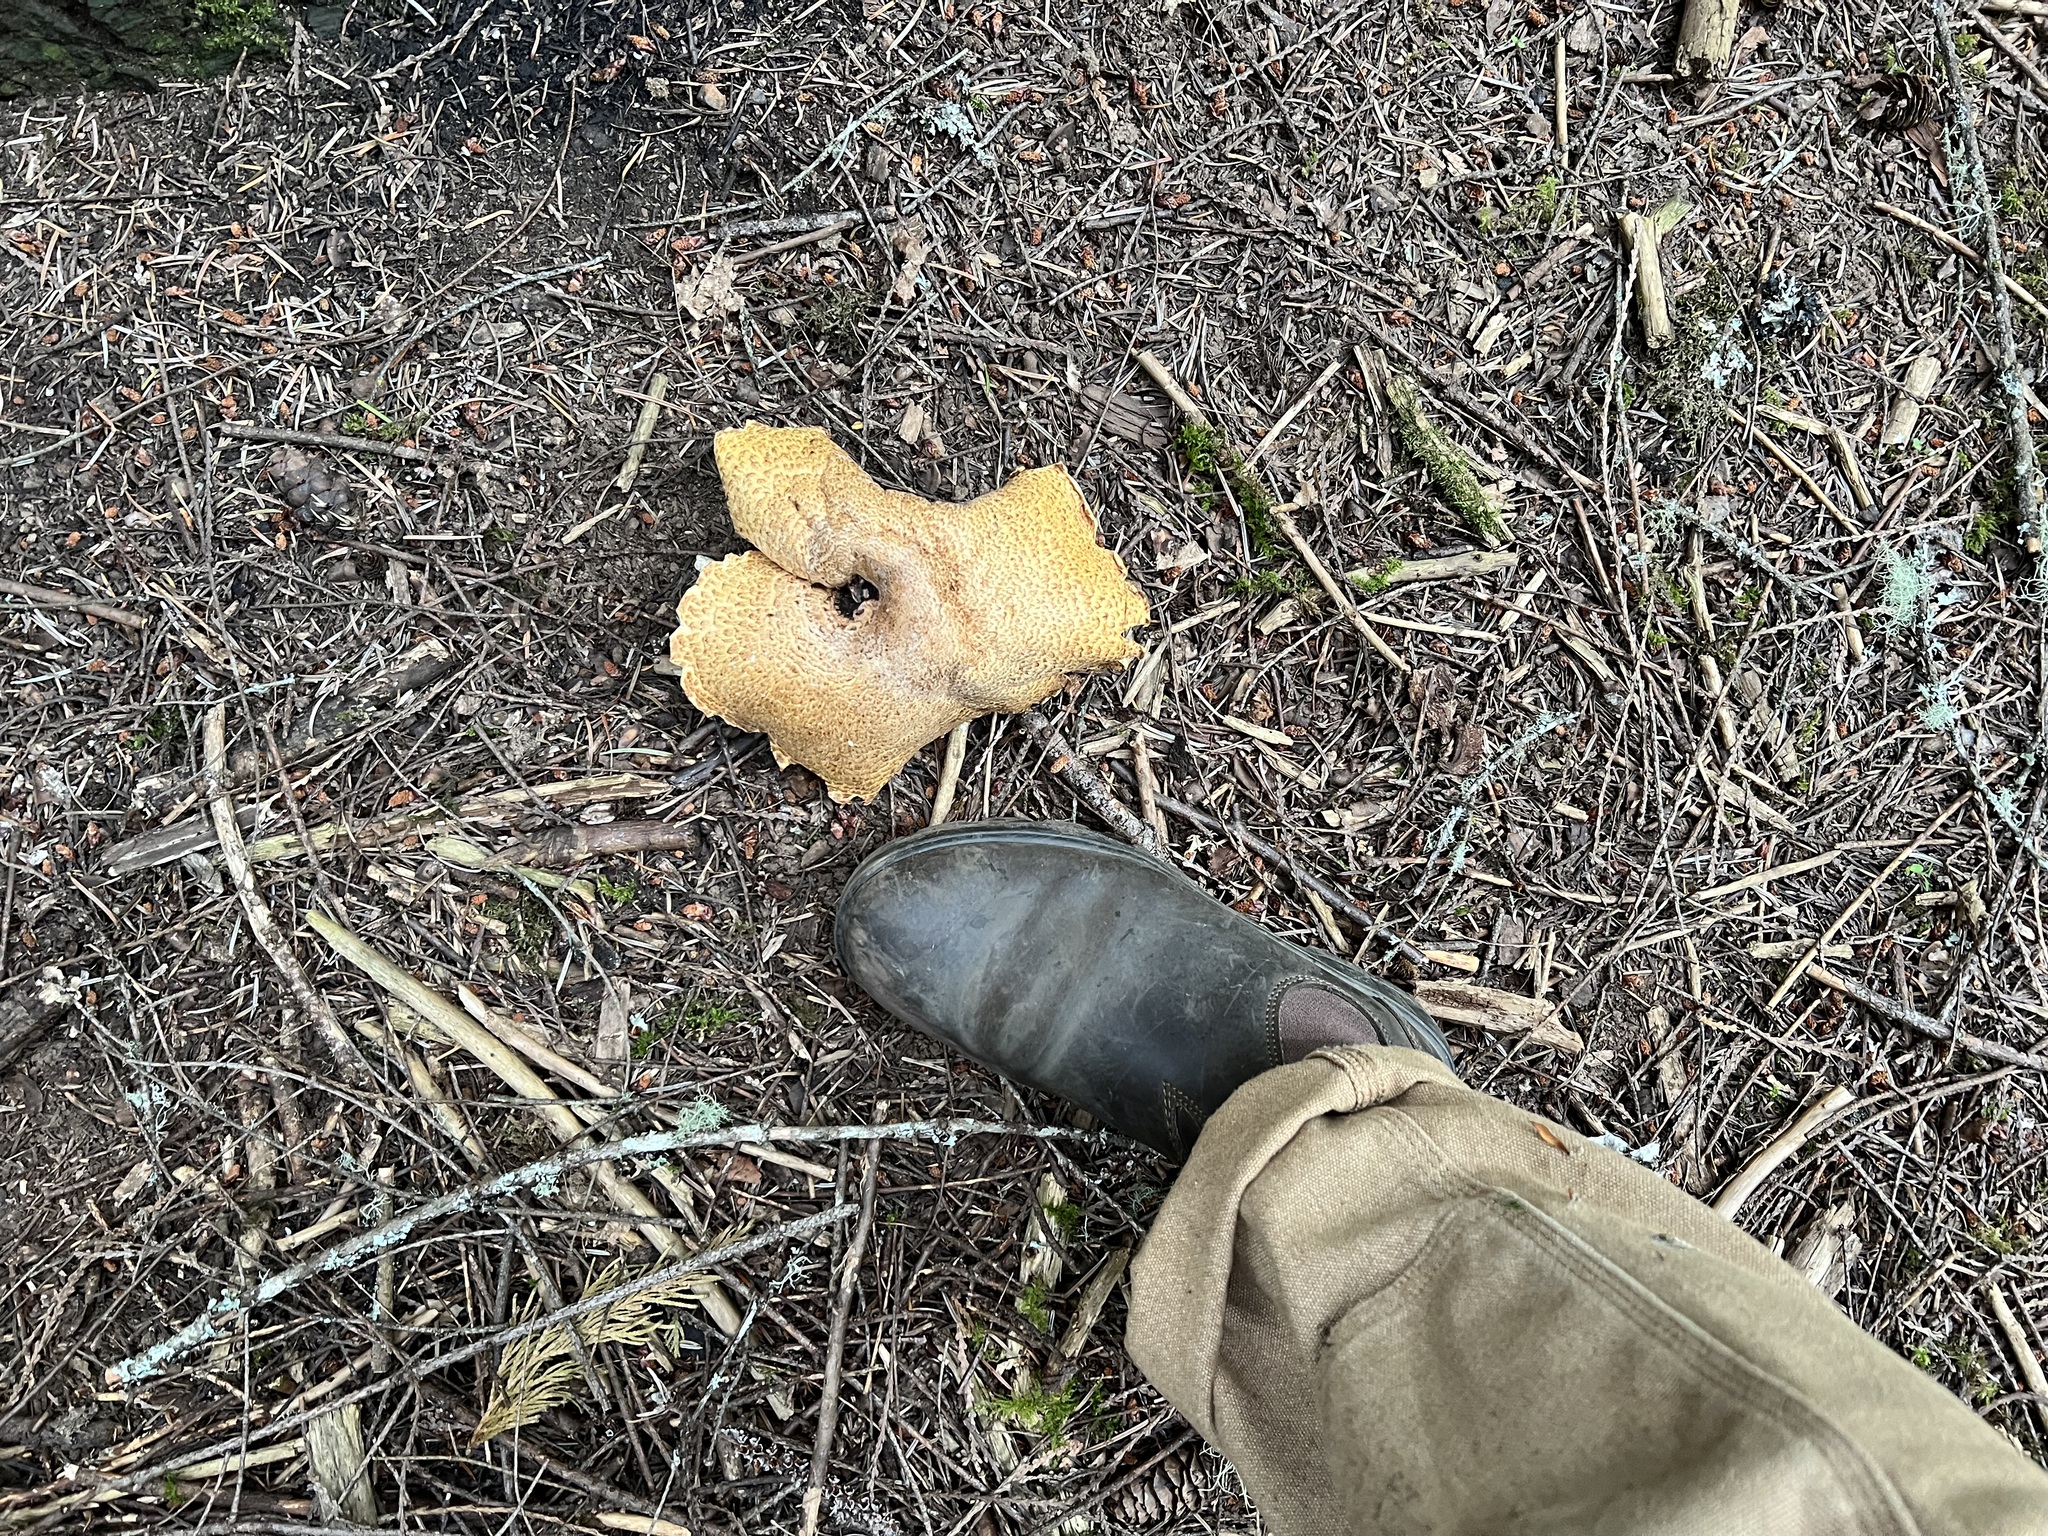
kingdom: Fungi
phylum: Basidiomycota
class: Agaricomycetes
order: Agaricales
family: Agaricaceae
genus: Agaricus
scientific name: Agaricus augustus
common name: Prince
